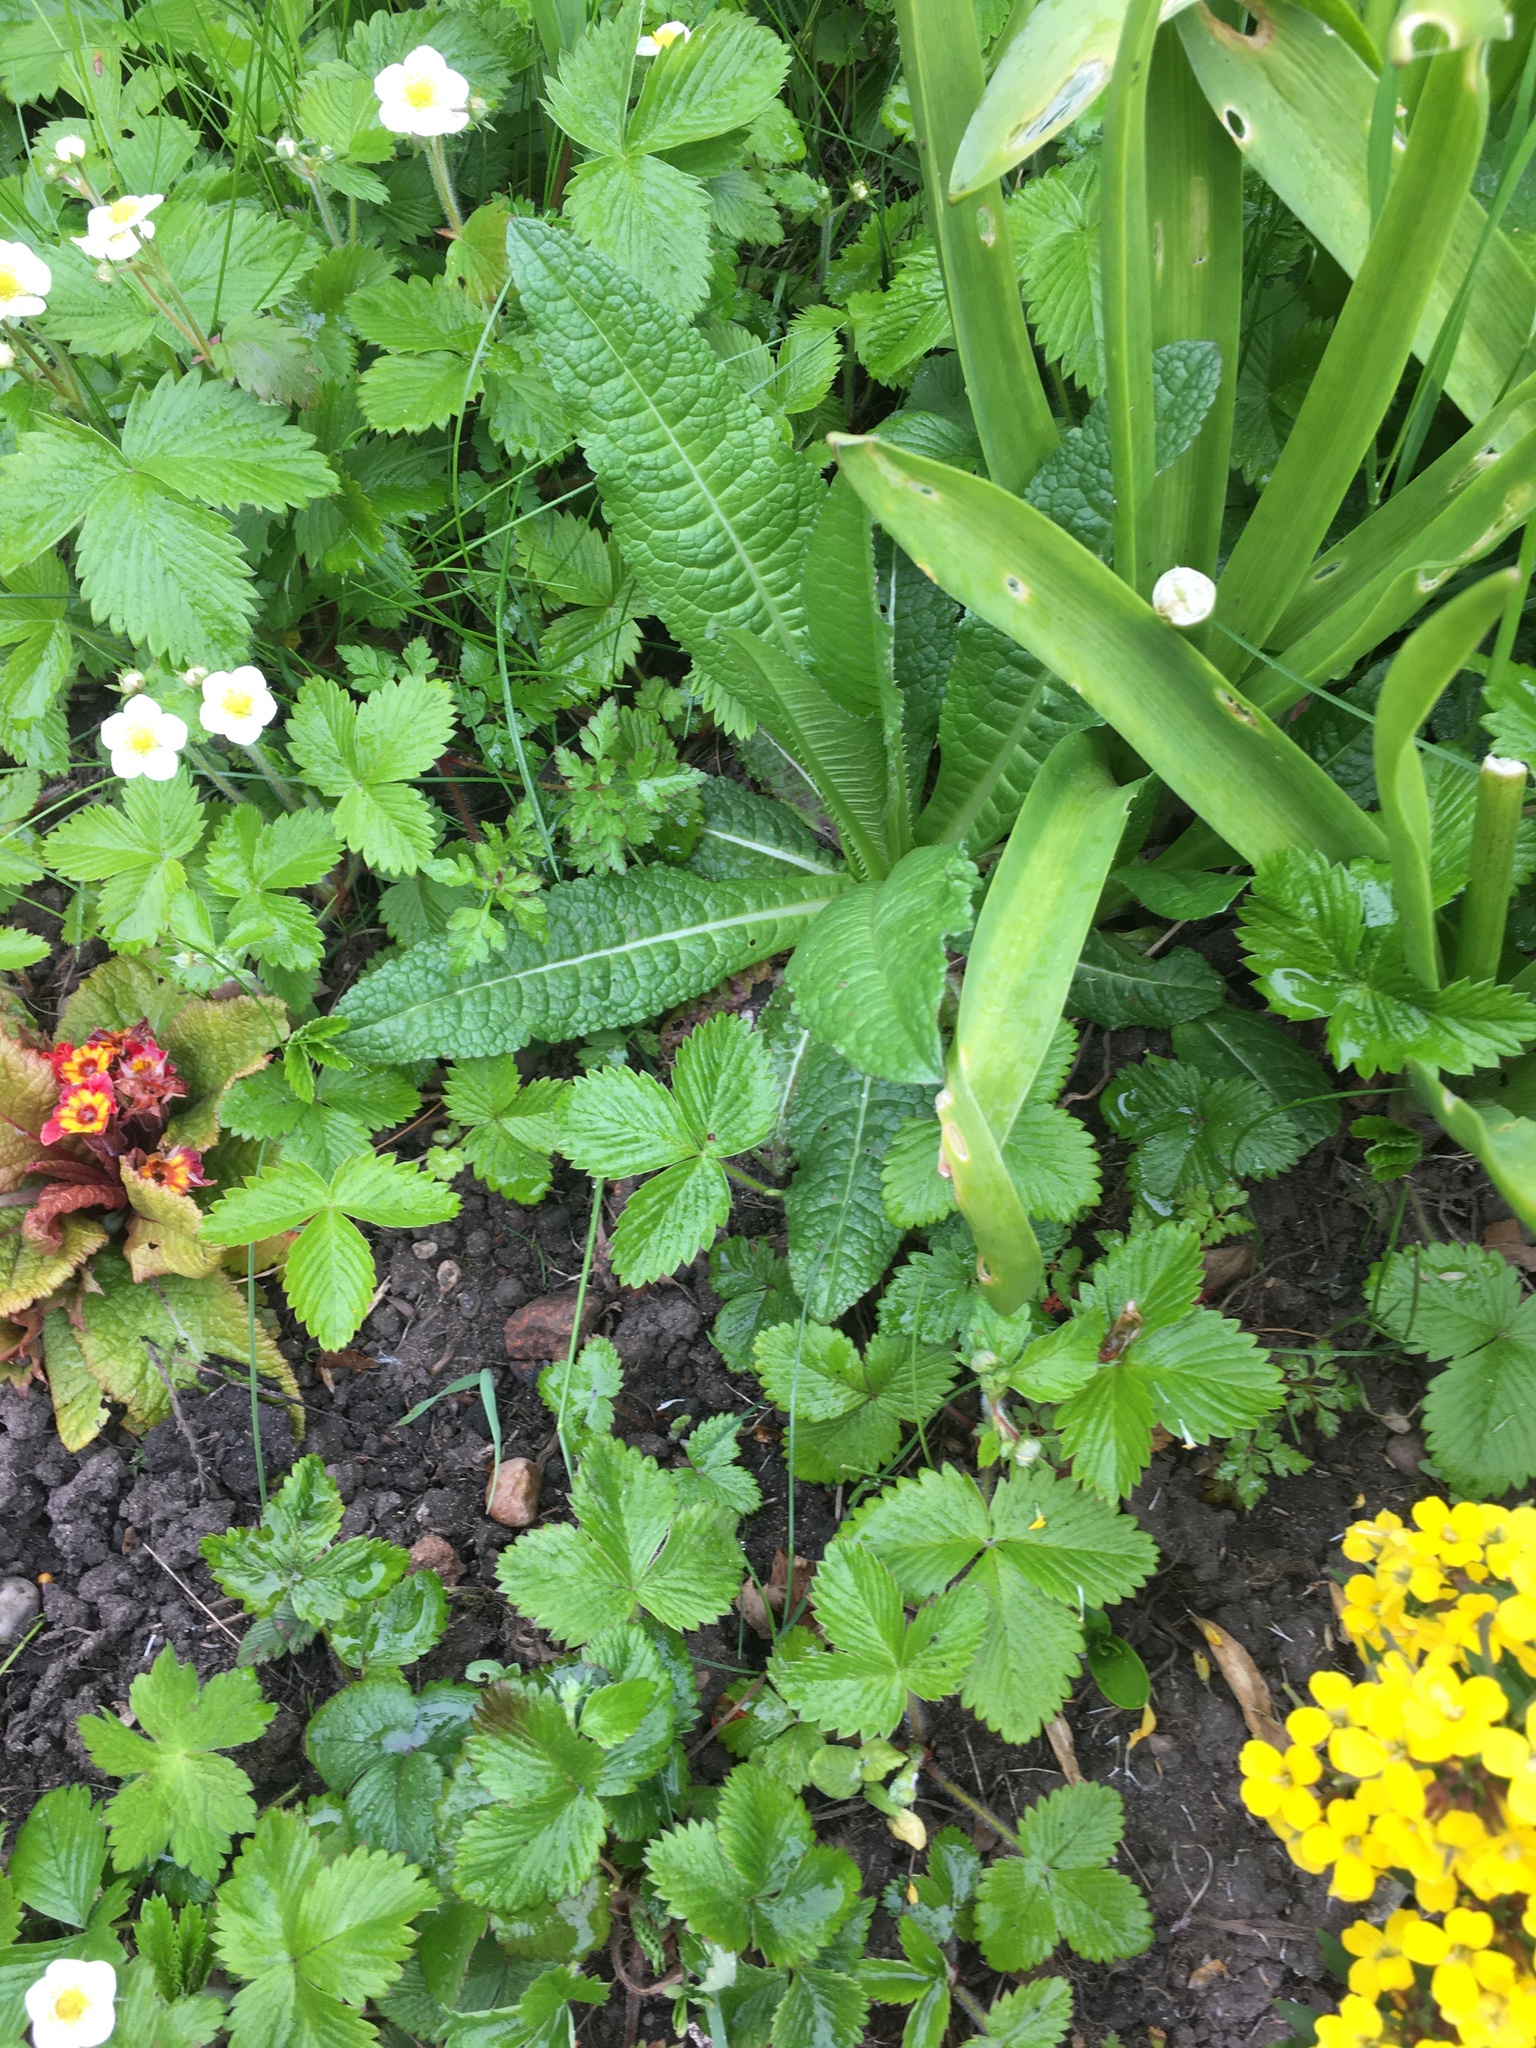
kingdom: Plantae
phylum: Tracheophyta
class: Magnoliopsida
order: Dipsacales
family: Caprifoliaceae
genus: Dipsacus
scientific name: Dipsacus fullonum
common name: Teasel
